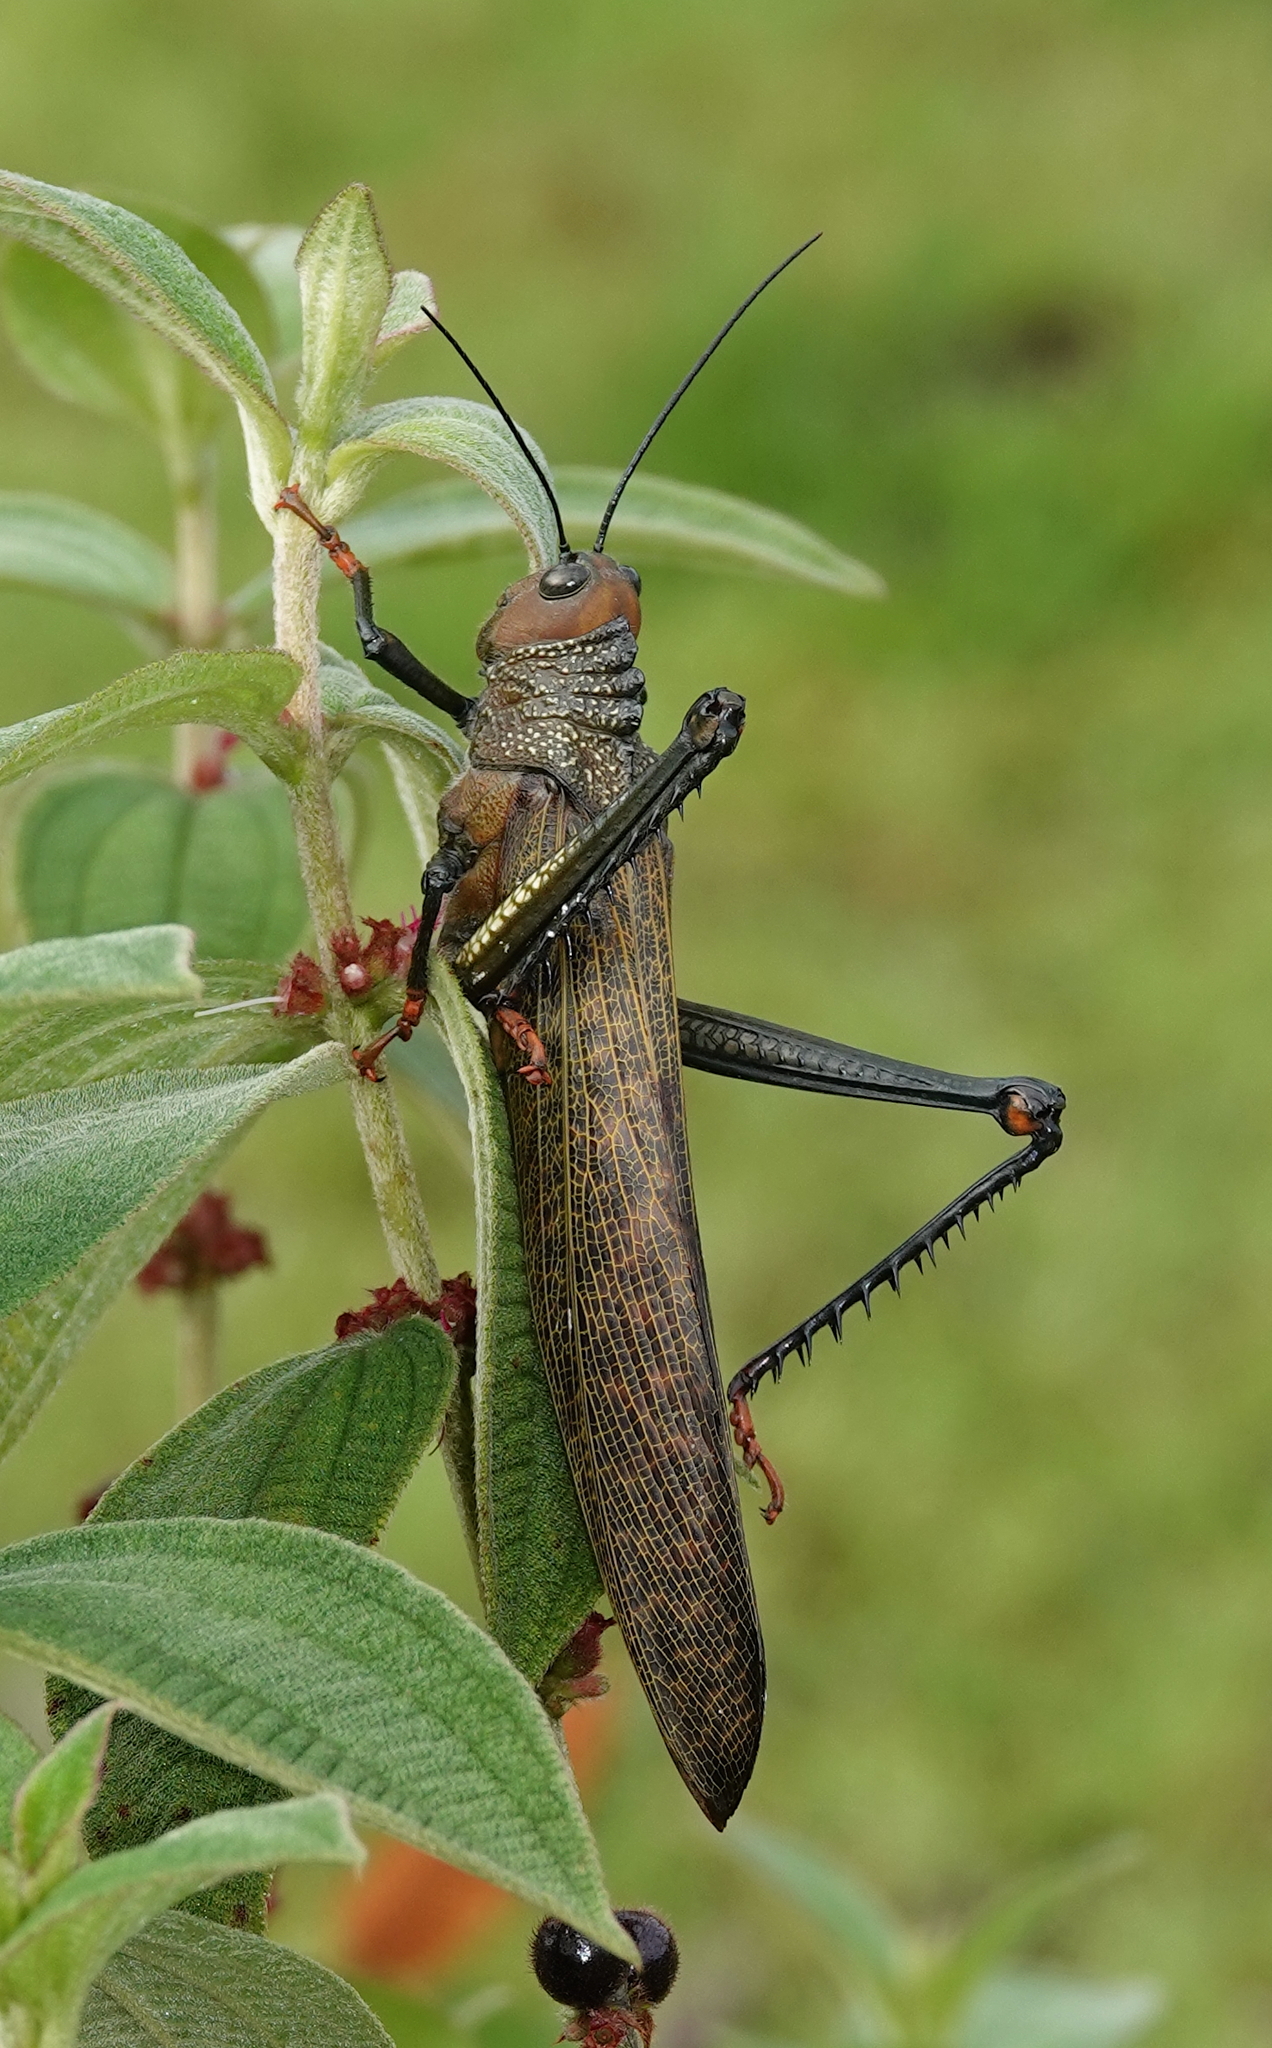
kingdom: Animalia
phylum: Arthropoda
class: Insecta
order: Orthoptera
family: Romaleidae
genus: Tropidacris
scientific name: Tropidacris cristata
